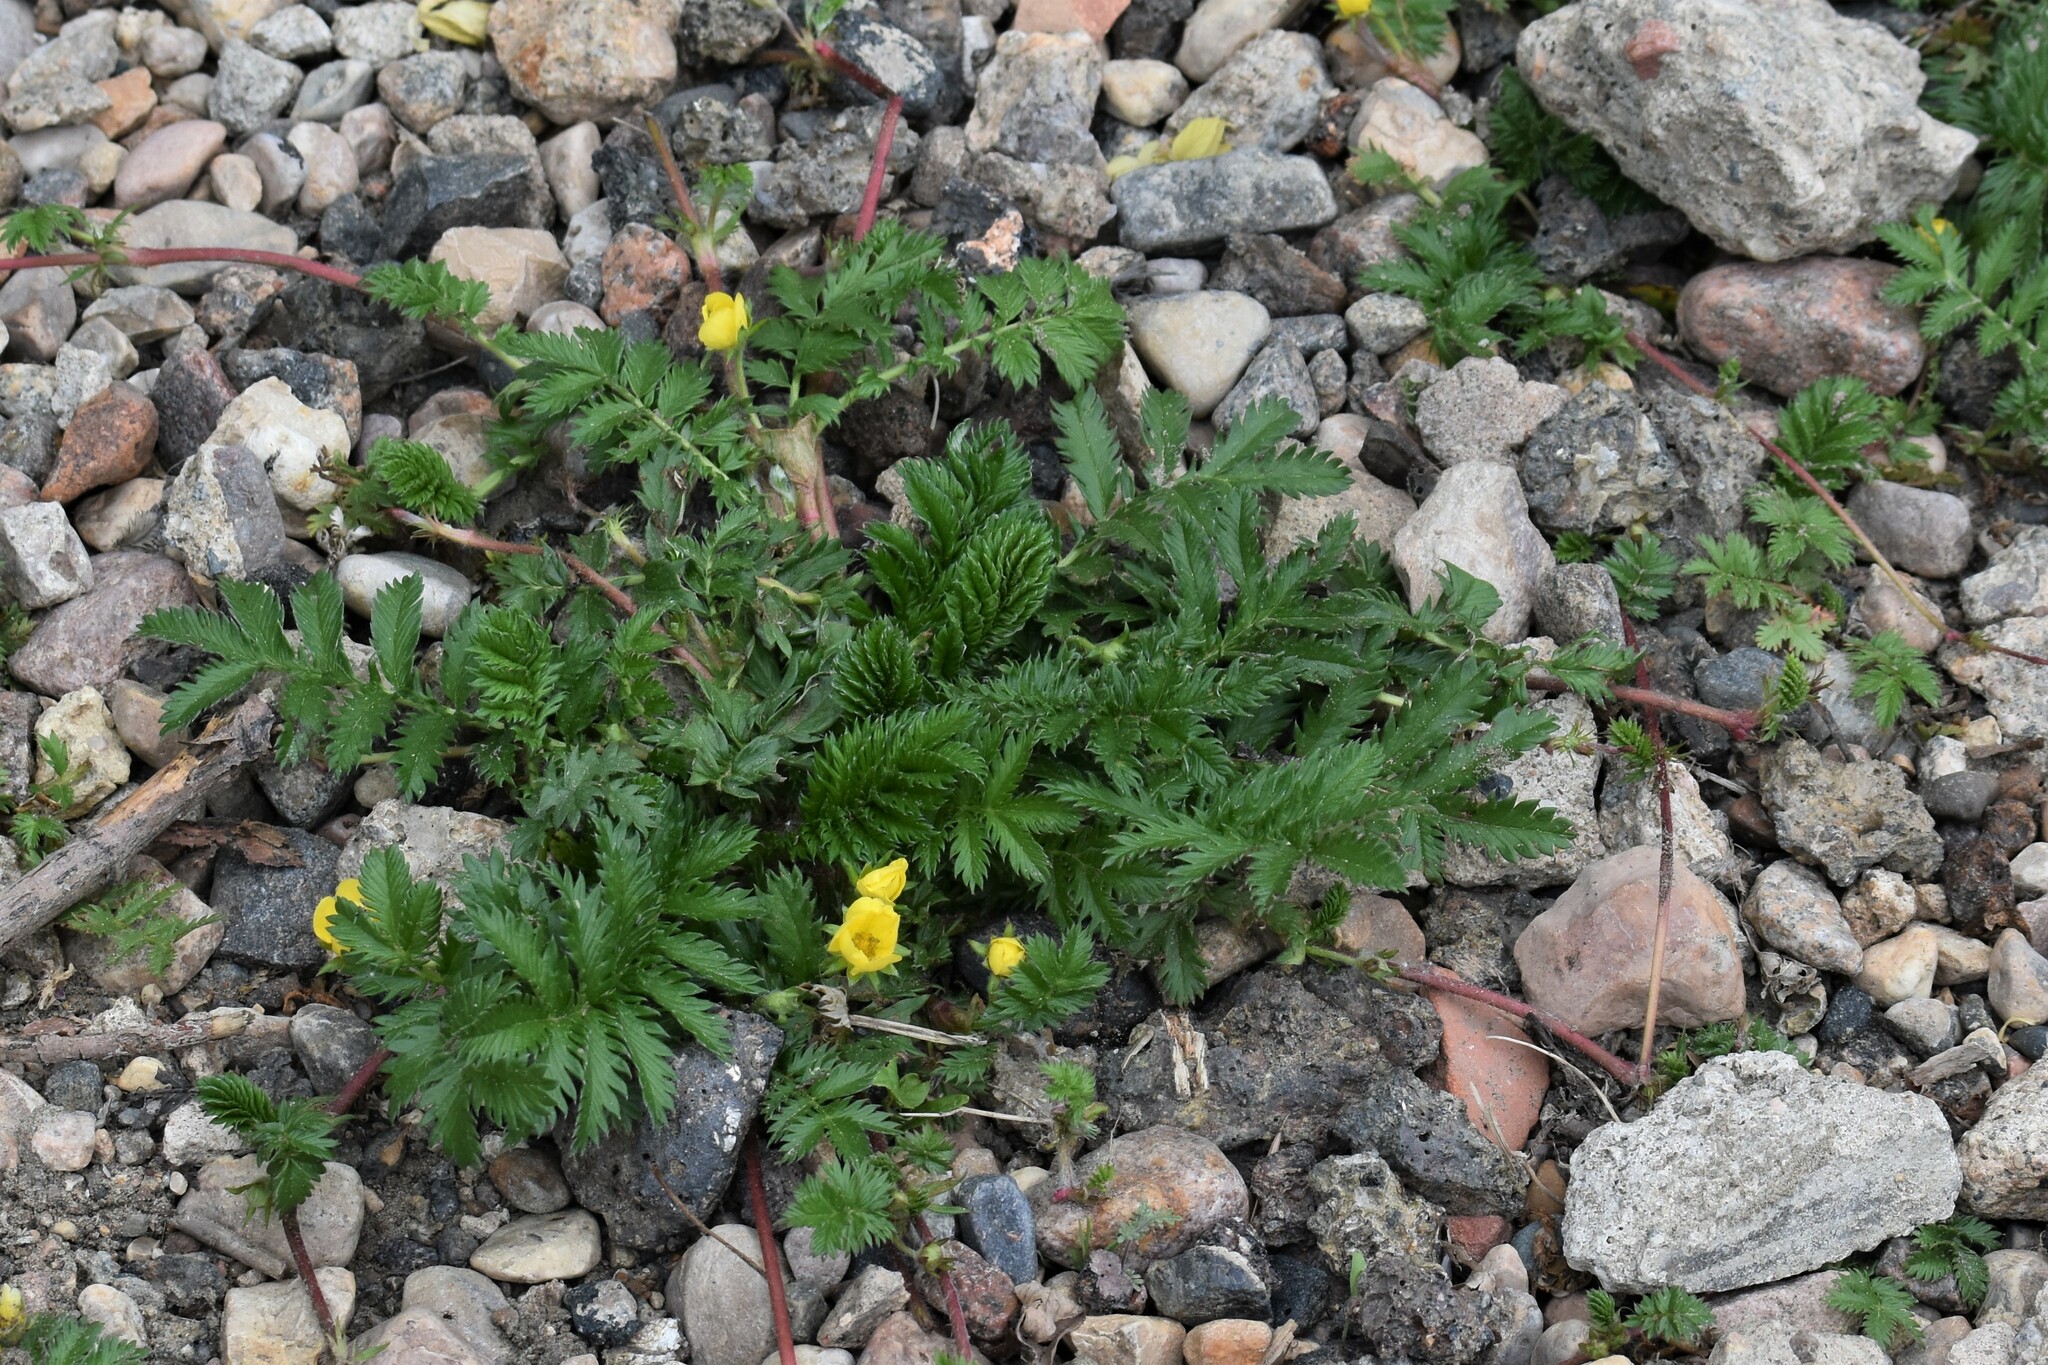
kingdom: Plantae
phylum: Tracheophyta
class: Magnoliopsida
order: Rosales
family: Rosaceae
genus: Argentina
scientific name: Argentina anserina
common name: Common silverweed
